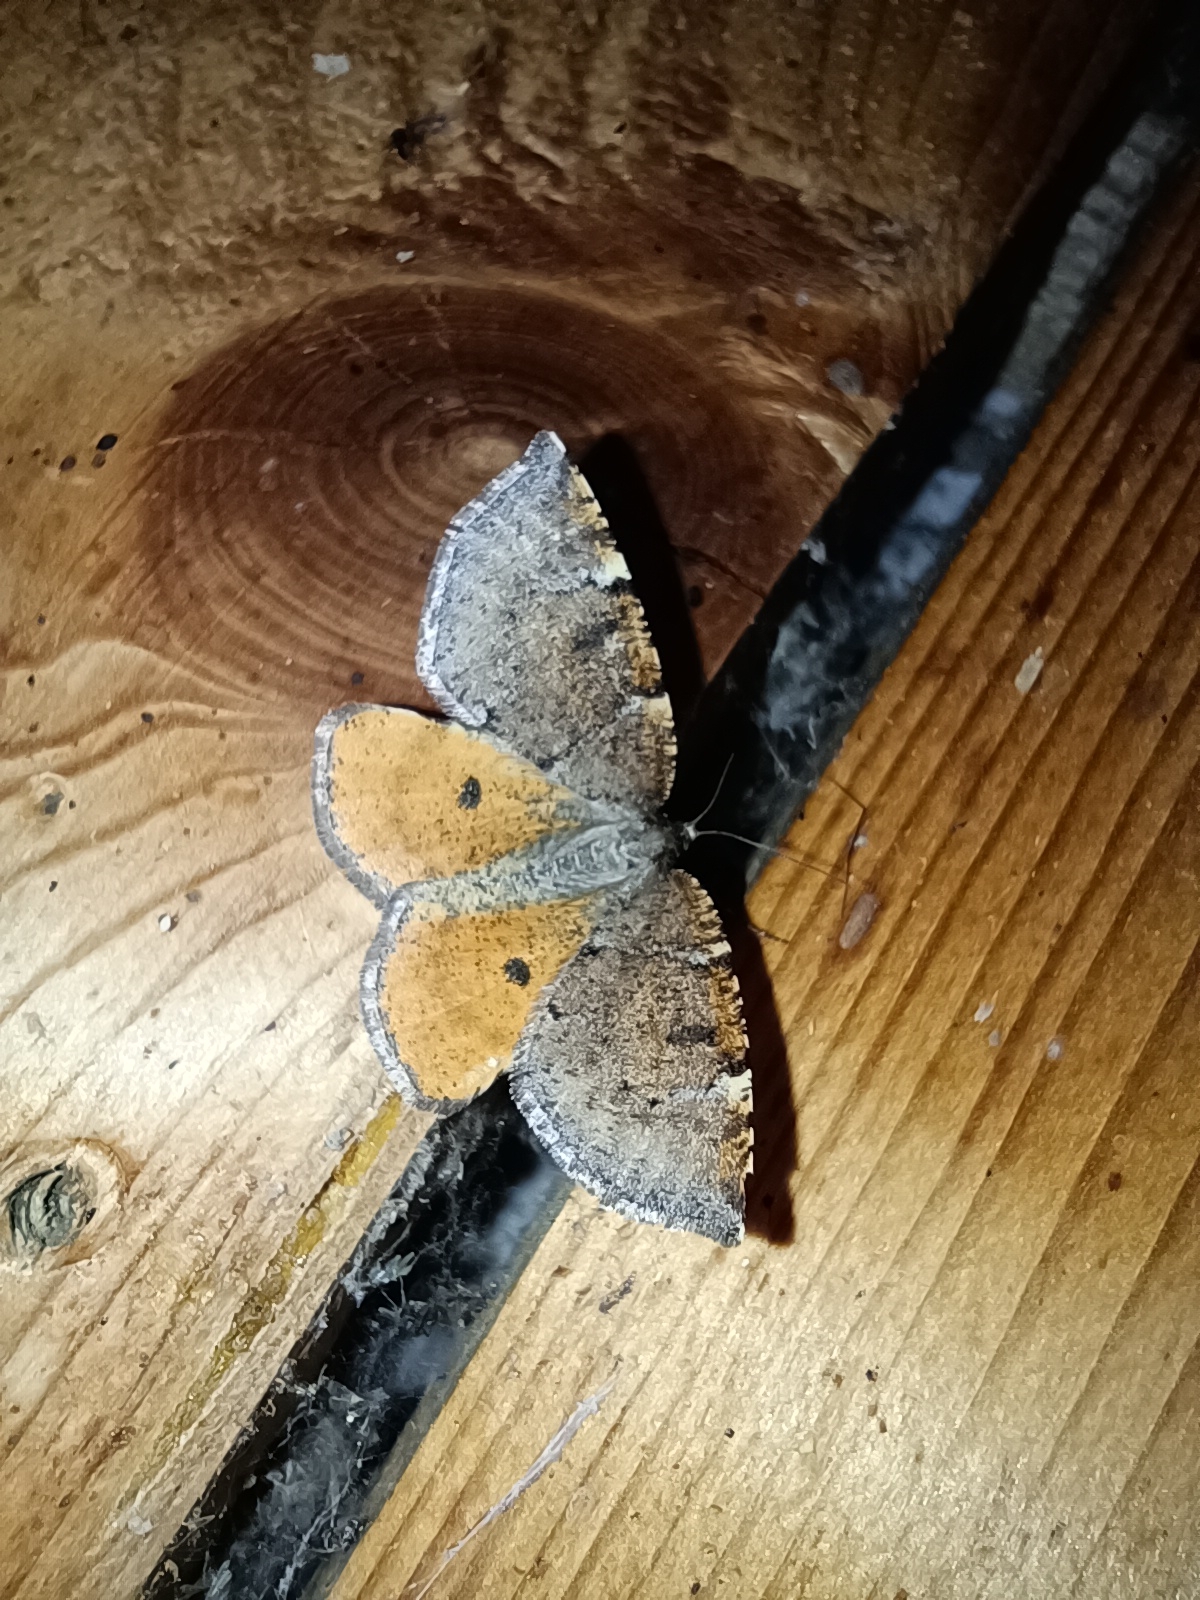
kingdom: Animalia
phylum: Arthropoda
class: Insecta
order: Lepidoptera
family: Geometridae
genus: Epirranthis
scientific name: Epirranthis diversata
